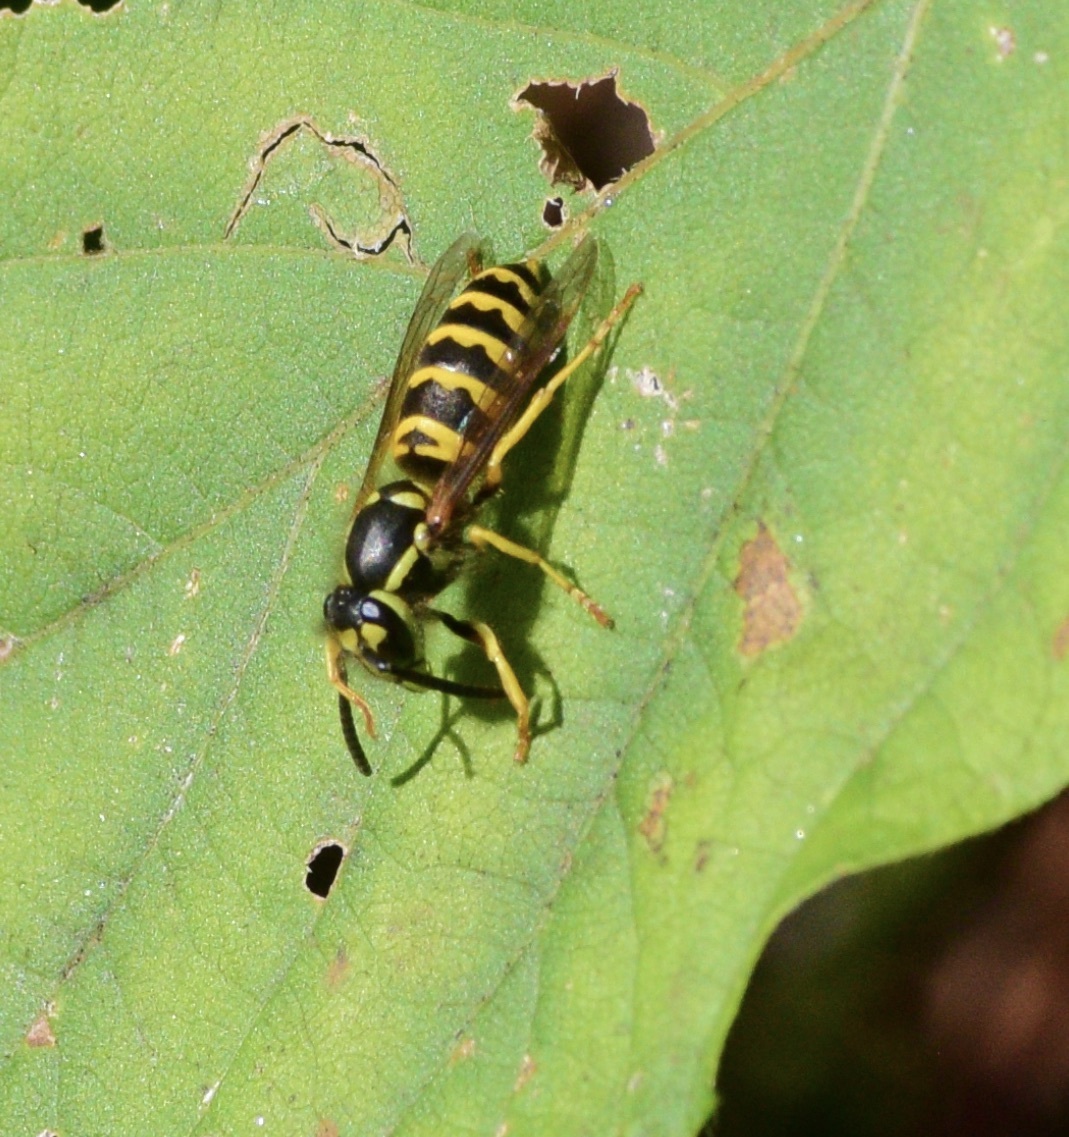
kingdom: Animalia
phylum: Arthropoda
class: Insecta
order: Hymenoptera
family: Vespidae
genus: Vespula
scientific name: Vespula maculifrons
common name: Eastern yellowjacket
